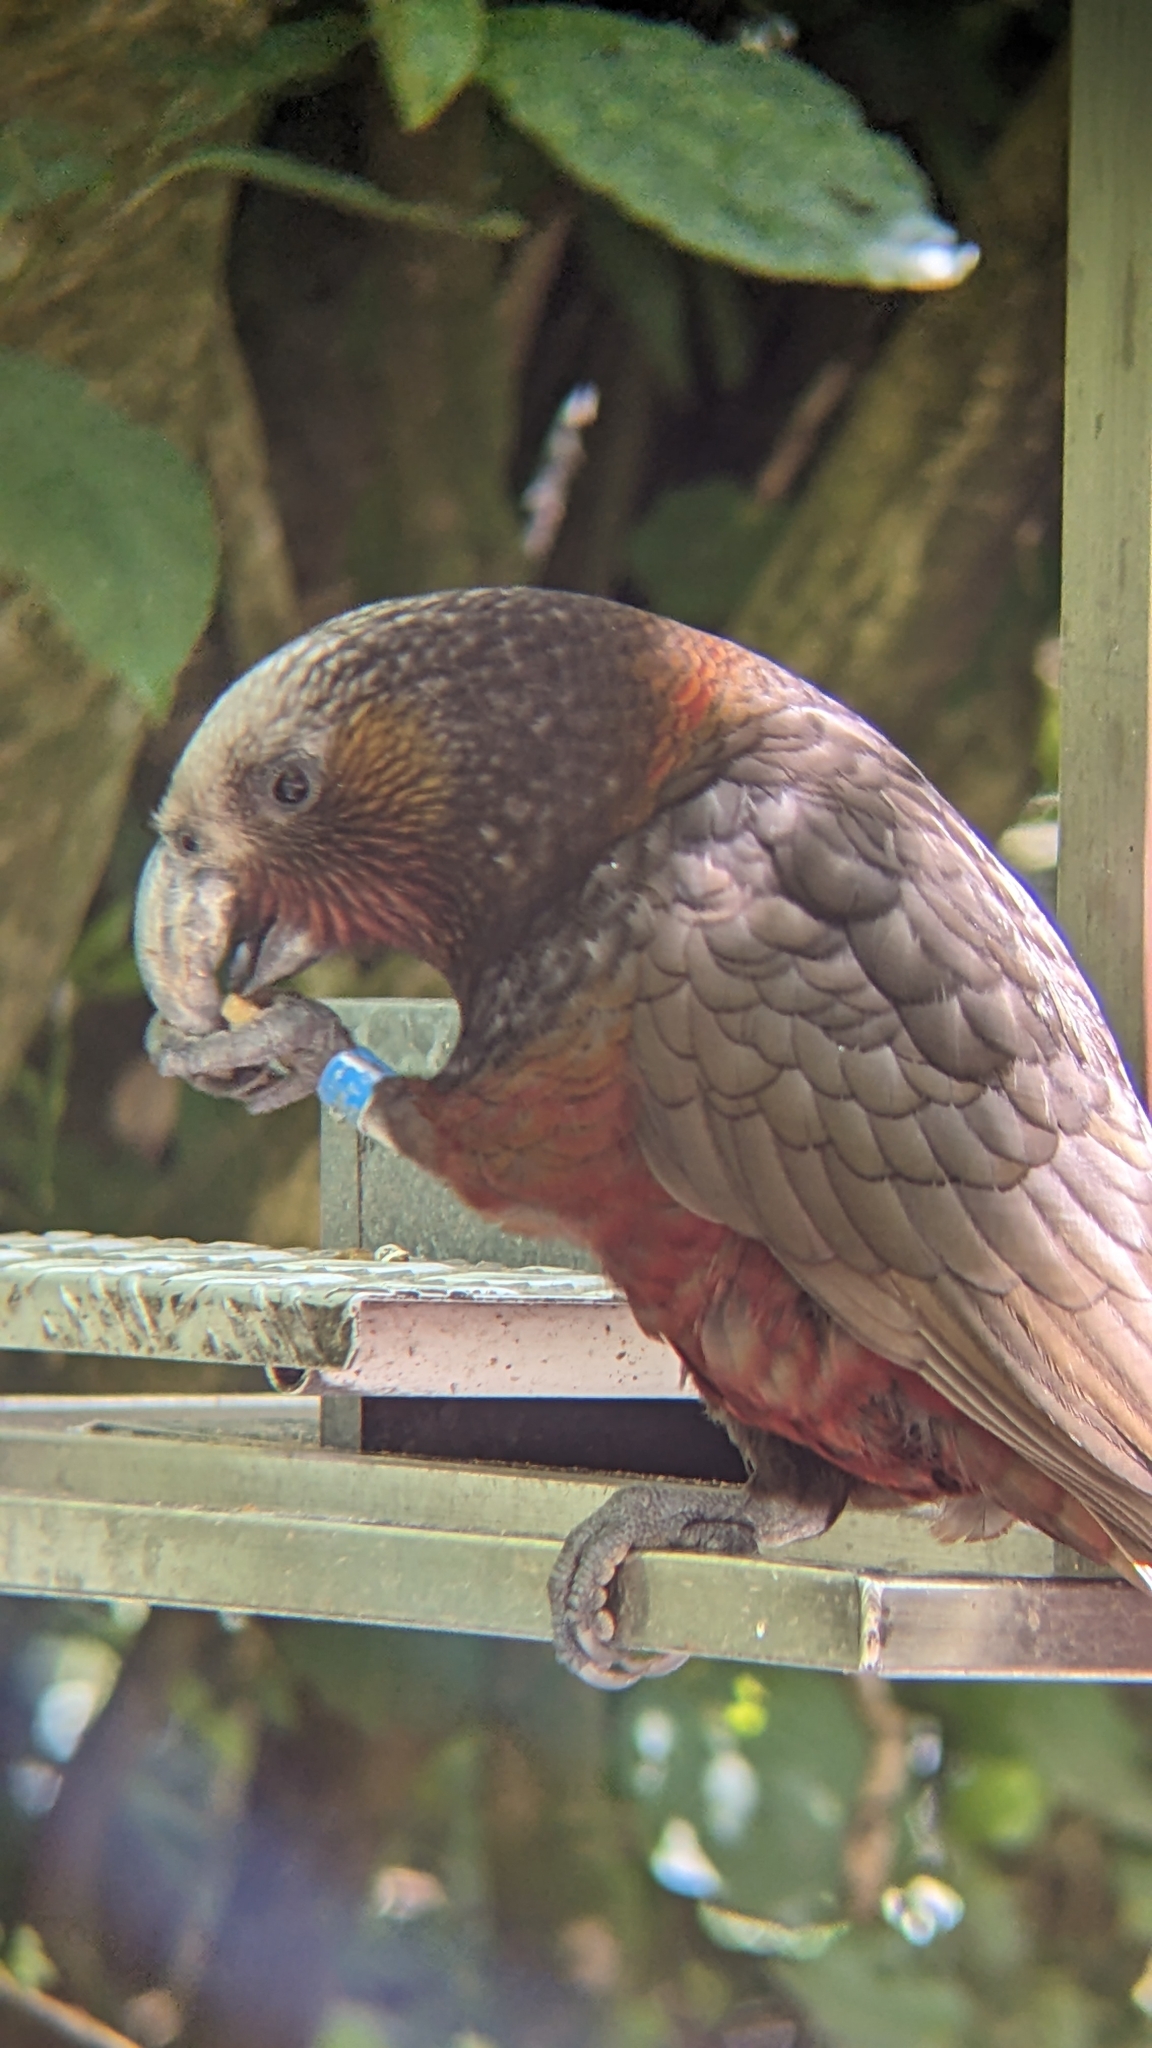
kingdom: Animalia
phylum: Chordata
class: Aves
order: Psittaciformes
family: Psittacidae
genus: Nestor
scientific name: Nestor meridionalis
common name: New zealand kaka
